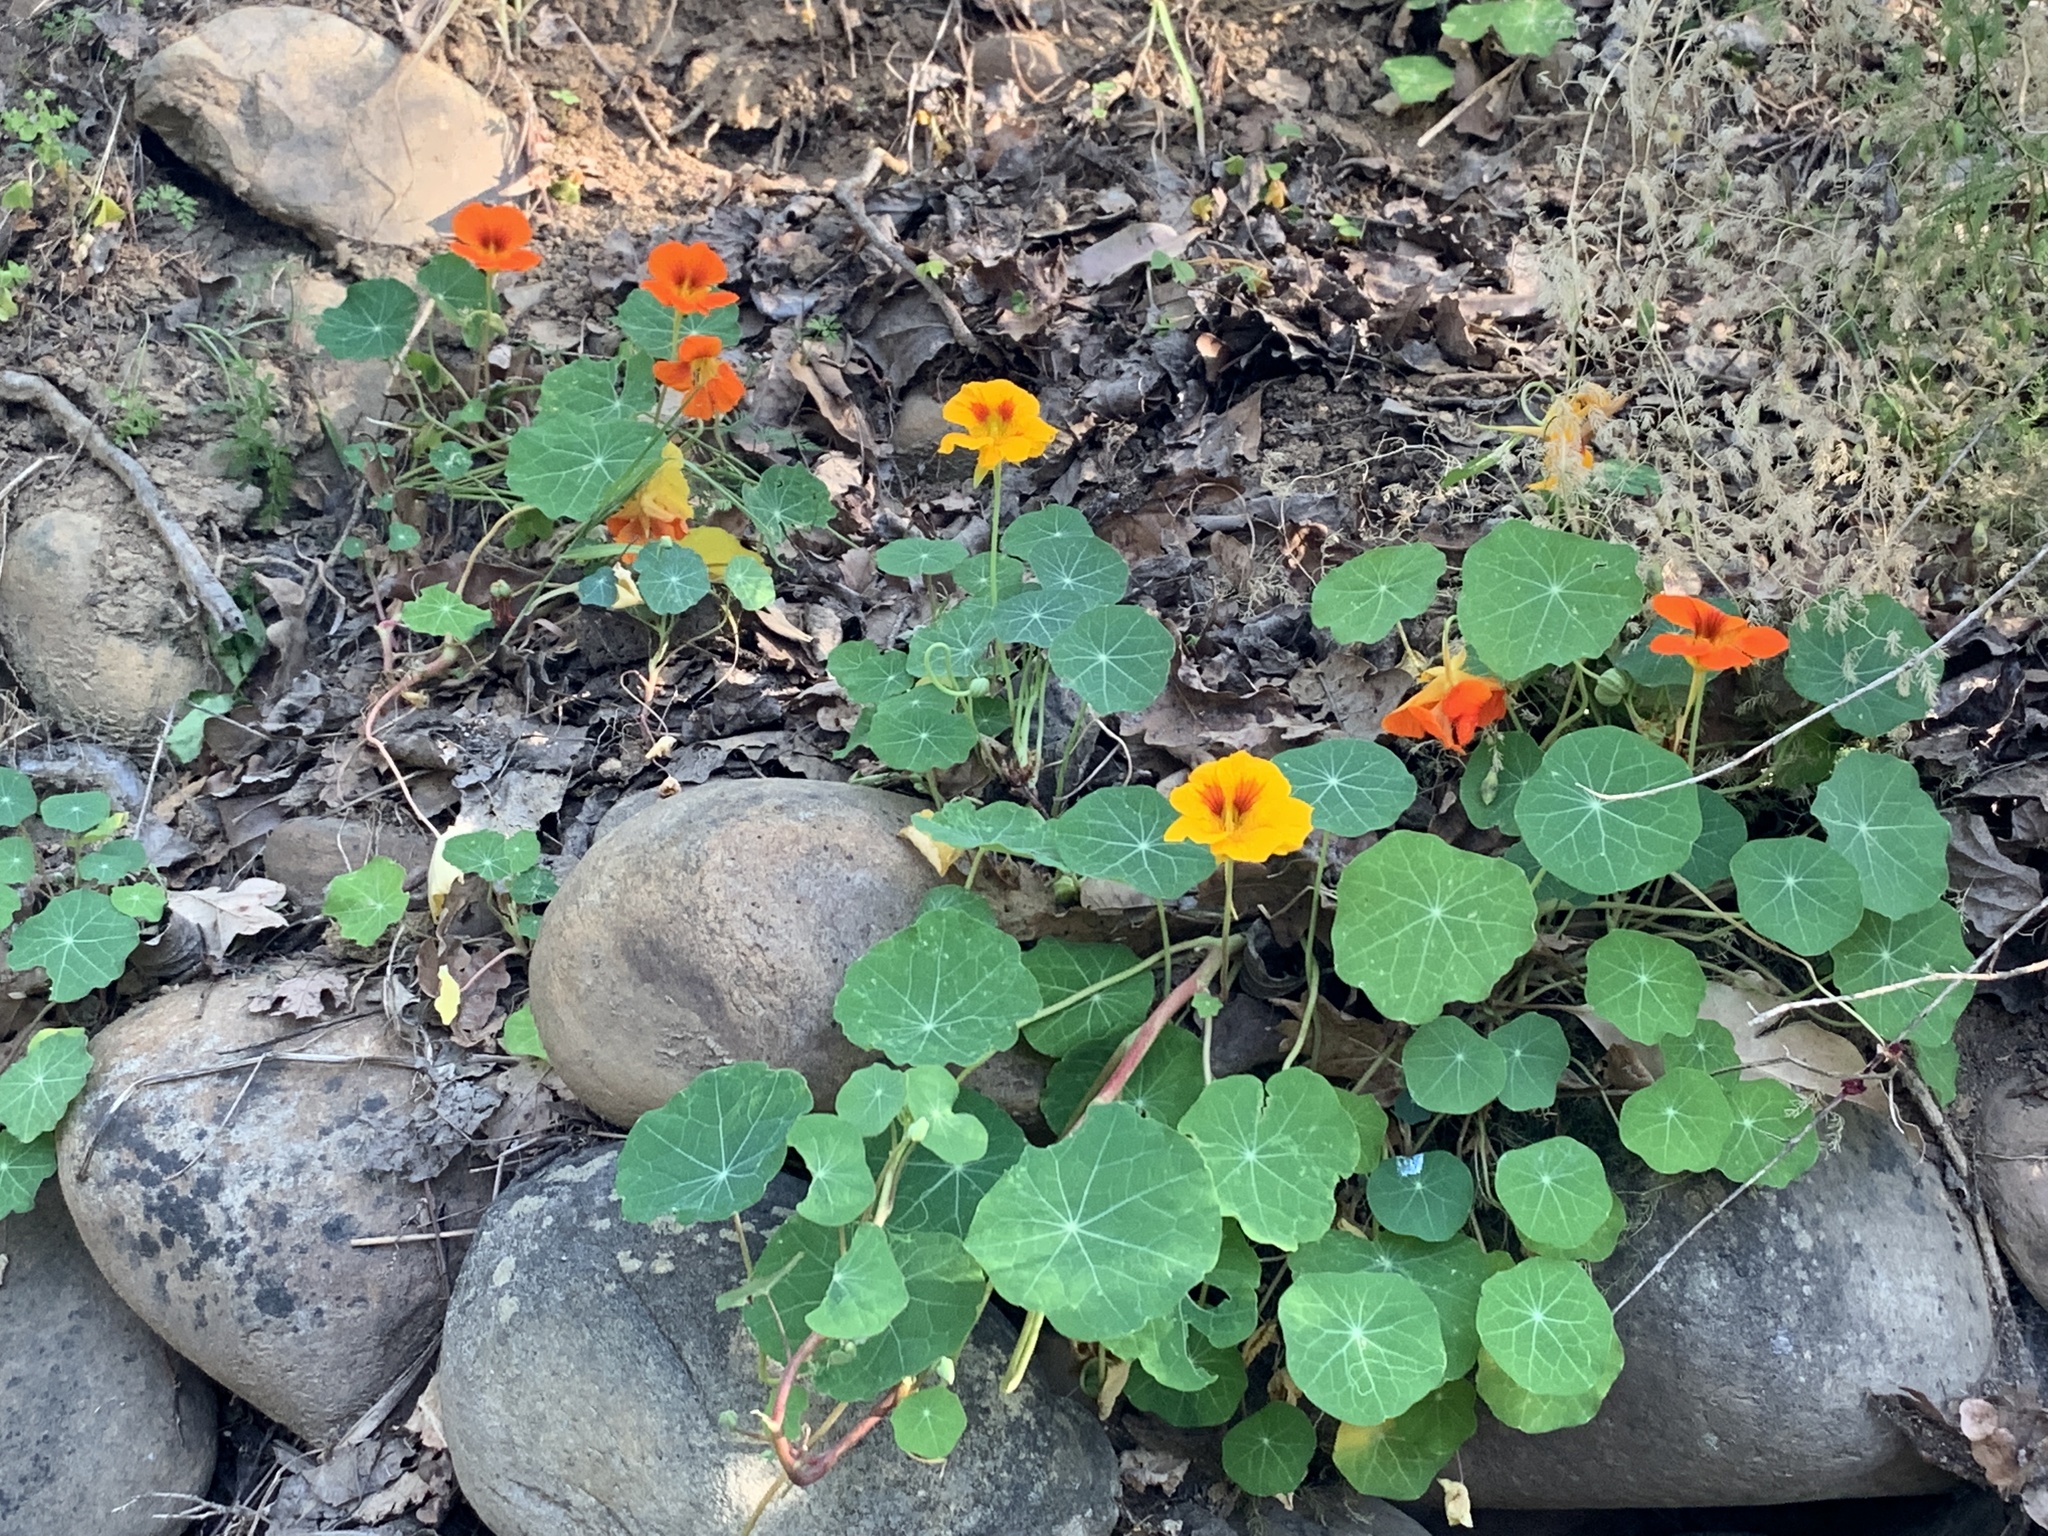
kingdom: Plantae
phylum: Tracheophyta
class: Magnoliopsida
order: Brassicales
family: Tropaeolaceae
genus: Tropaeolum
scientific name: Tropaeolum majus
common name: Nasturtium
